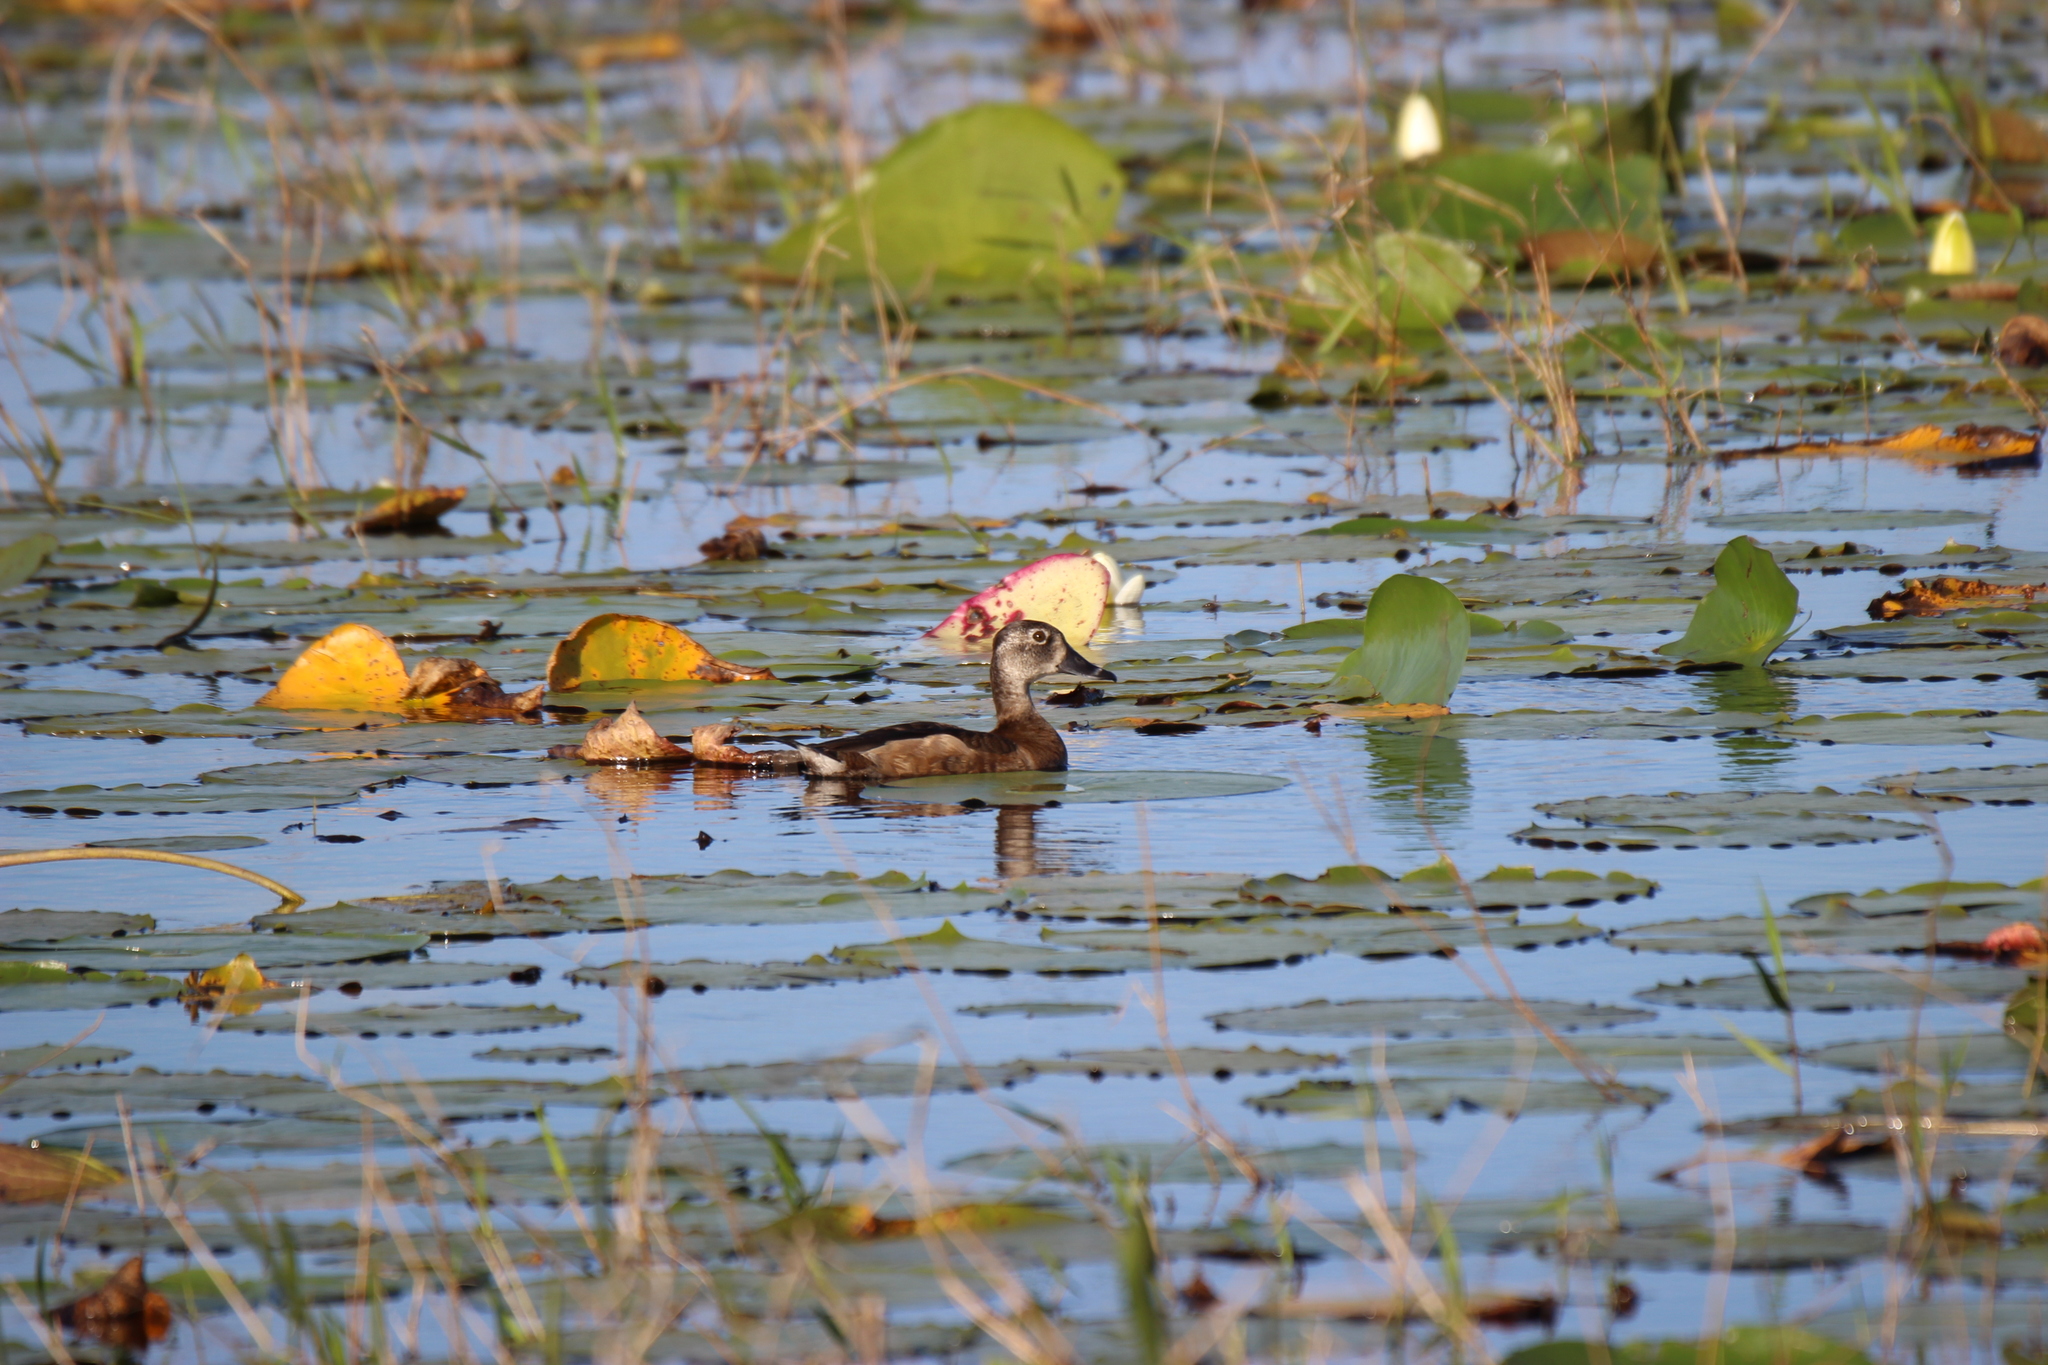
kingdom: Animalia
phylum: Chordata
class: Aves
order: Anseriformes
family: Anatidae
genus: Aythya
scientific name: Aythya collaris
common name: Ring-necked duck
